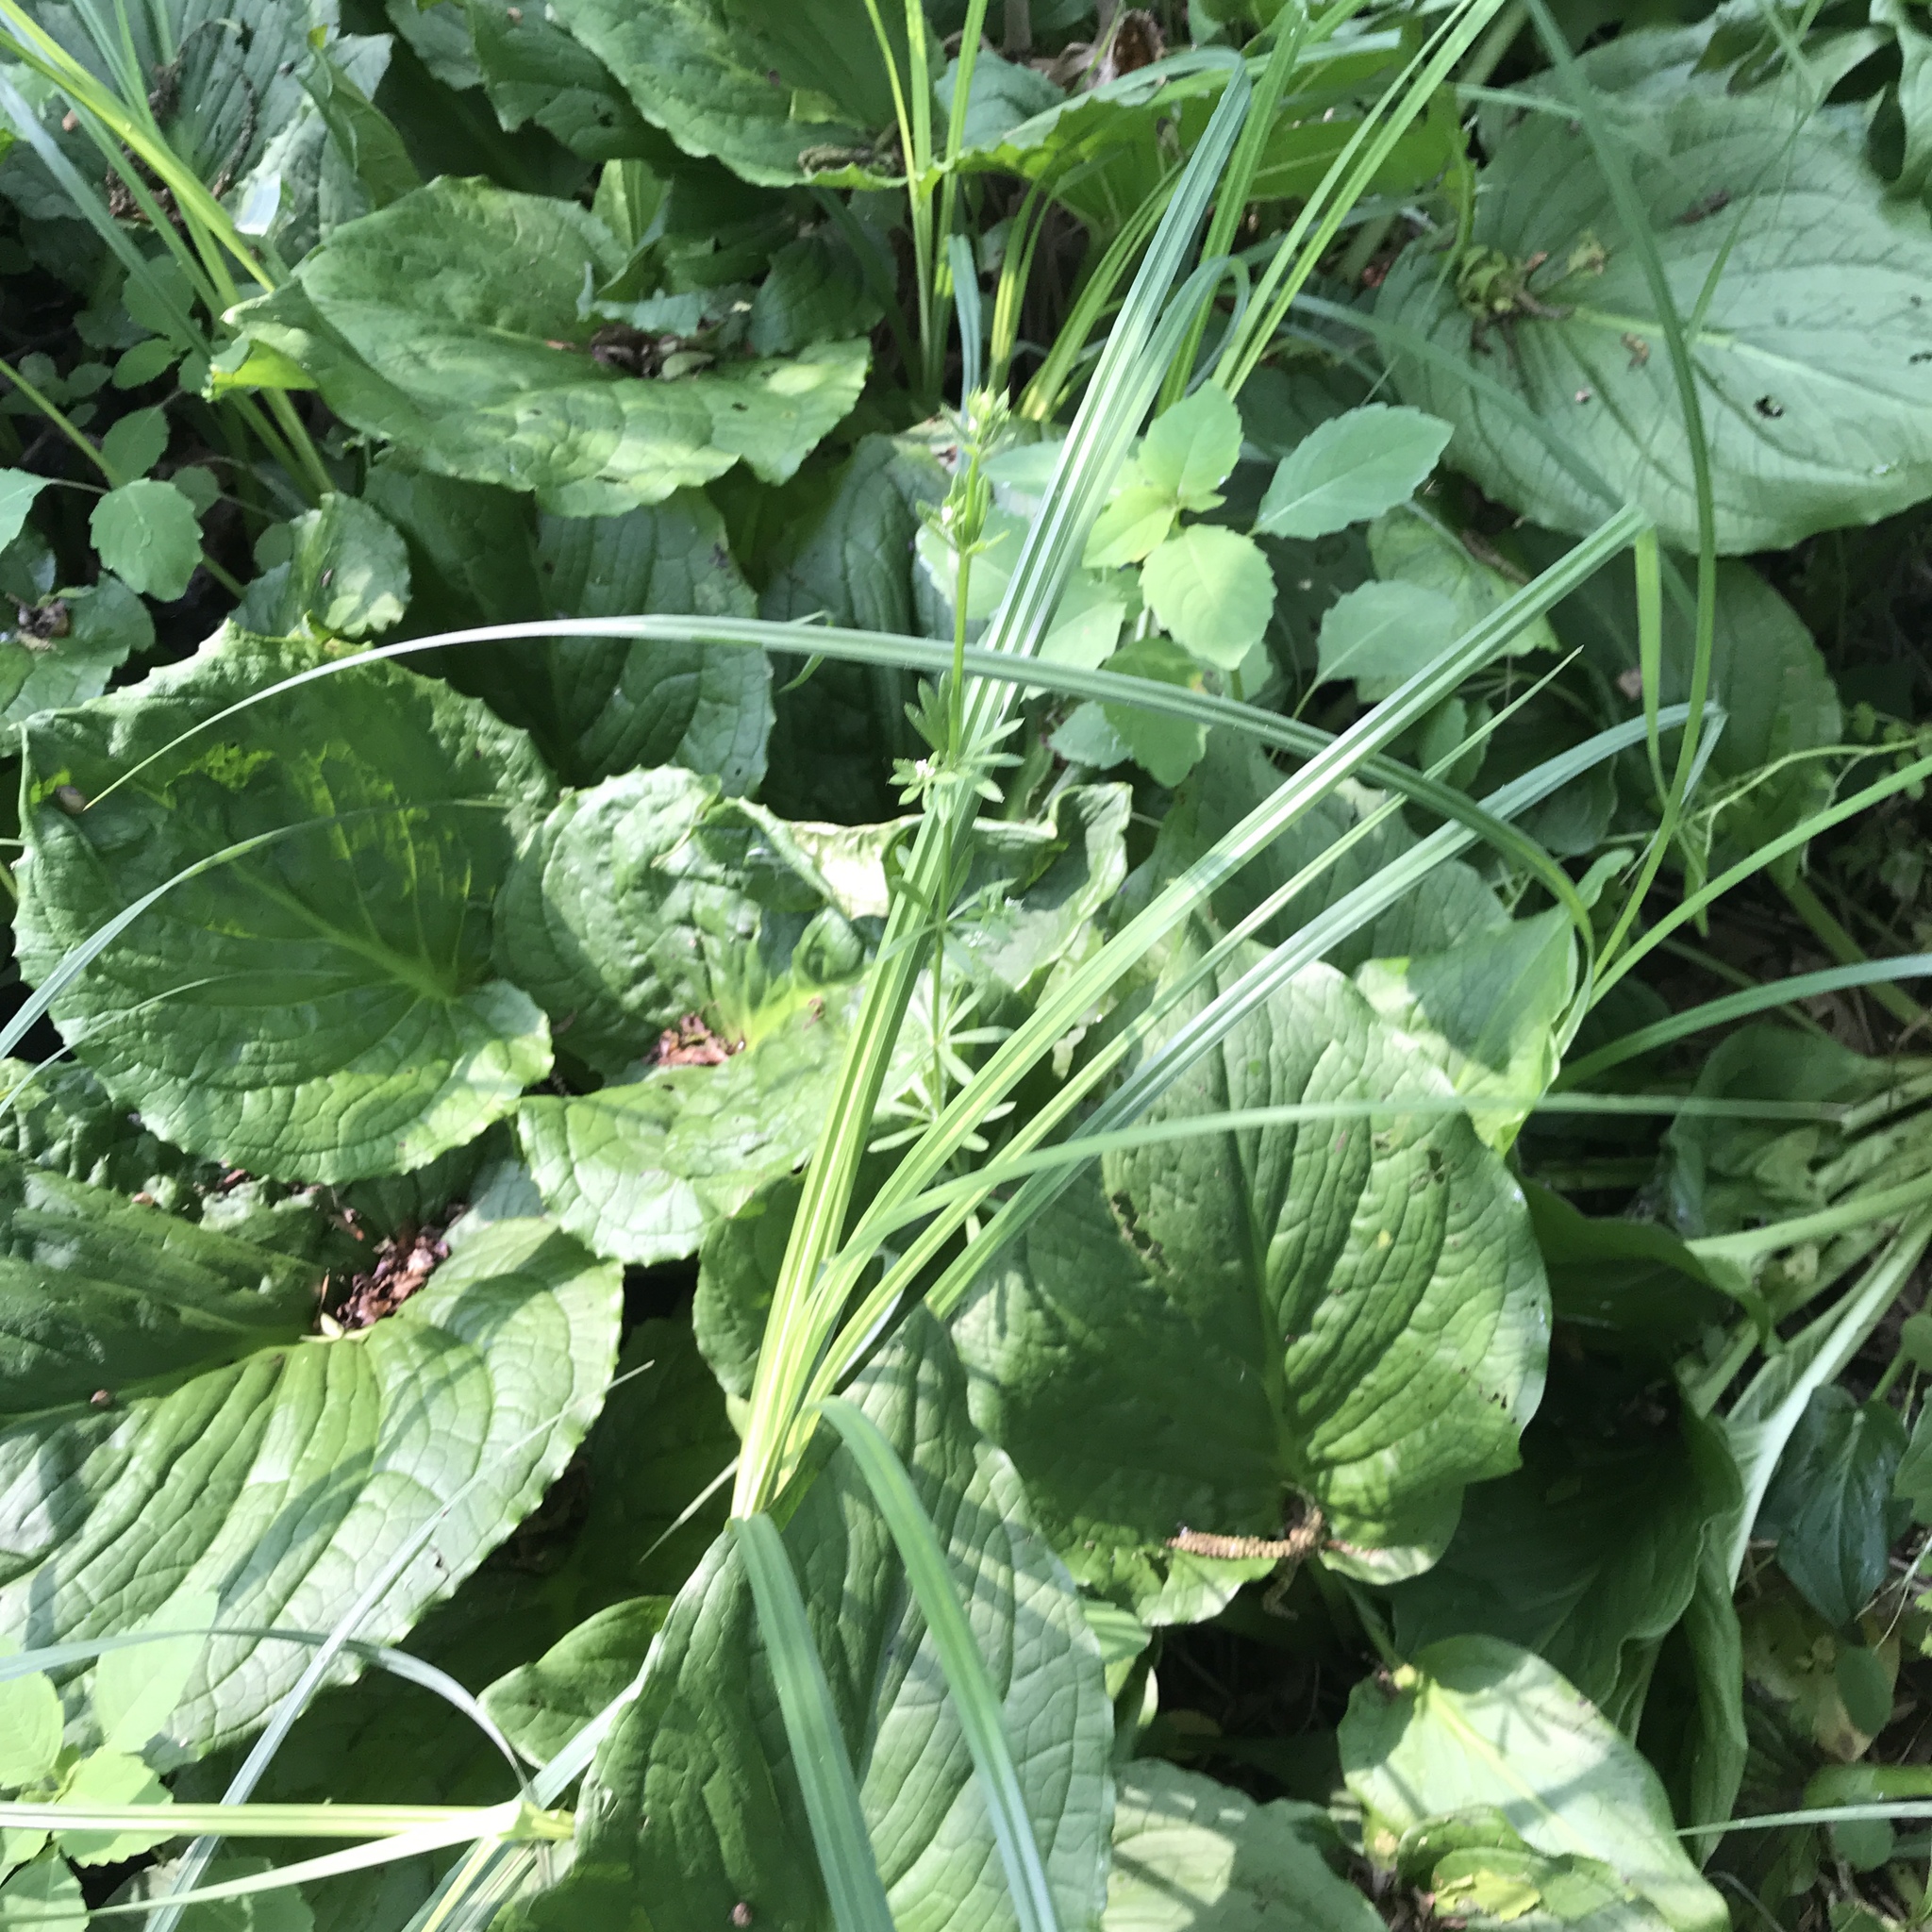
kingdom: Plantae
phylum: Tracheophyta
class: Magnoliopsida
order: Gentianales
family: Rubiaceae
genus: Galium
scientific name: Galium aparine
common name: Cleavers
